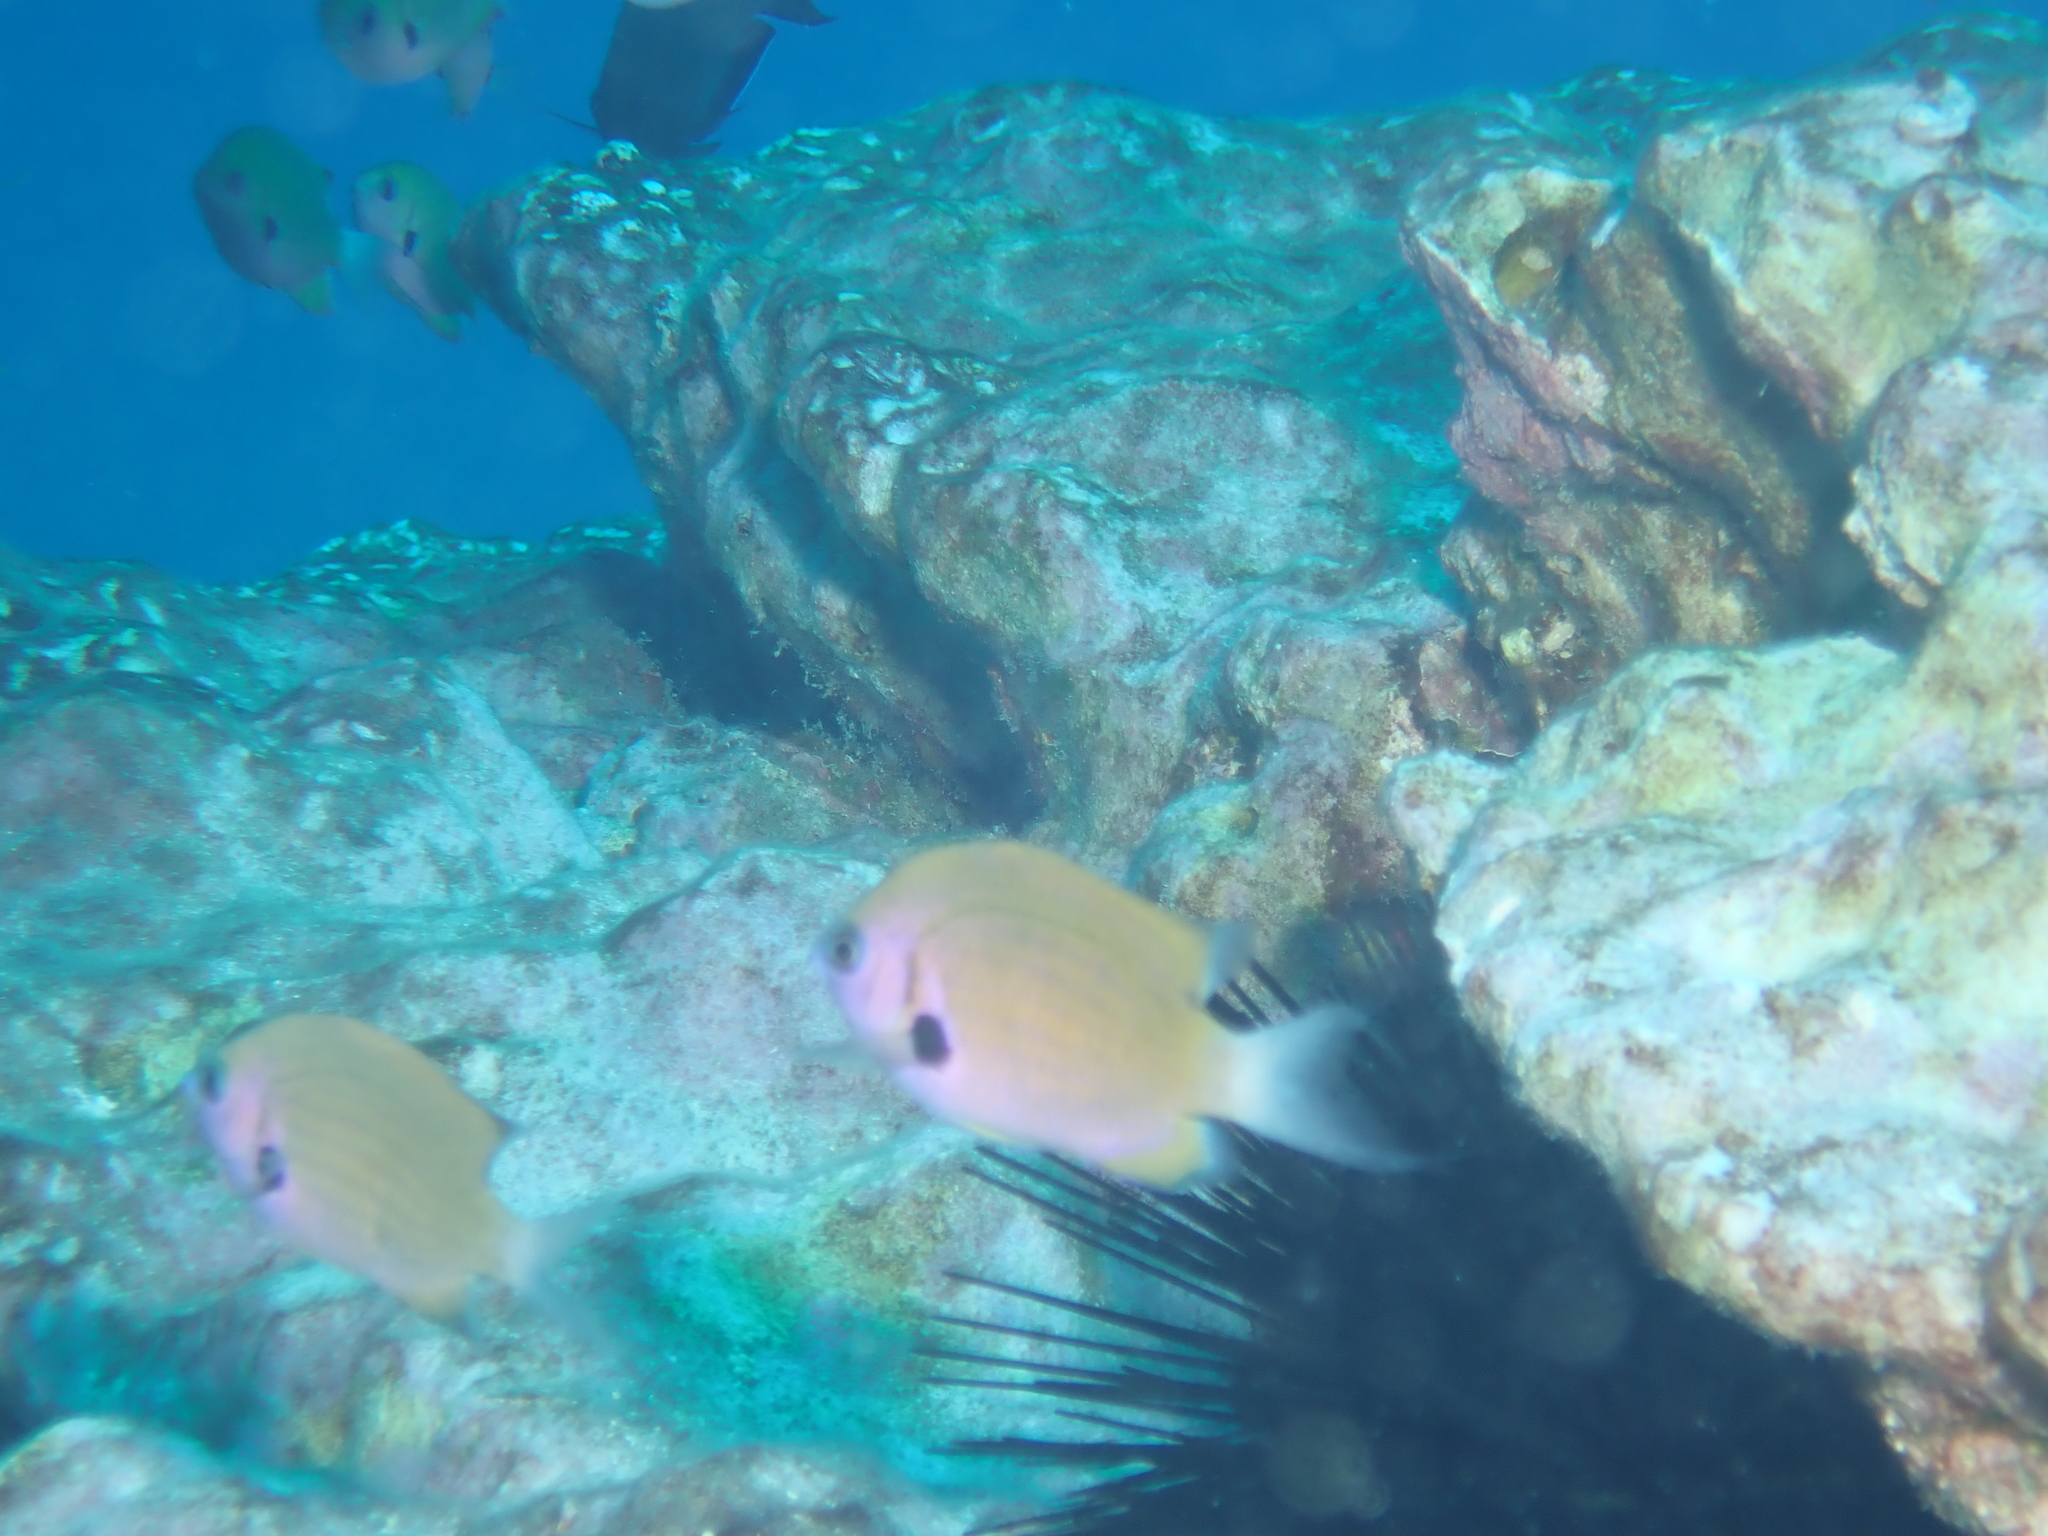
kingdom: Animalia
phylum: Chordata
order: Perciformes
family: Pomacentridae
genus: Pycnochromis
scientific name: Pycnochromis pacifica
